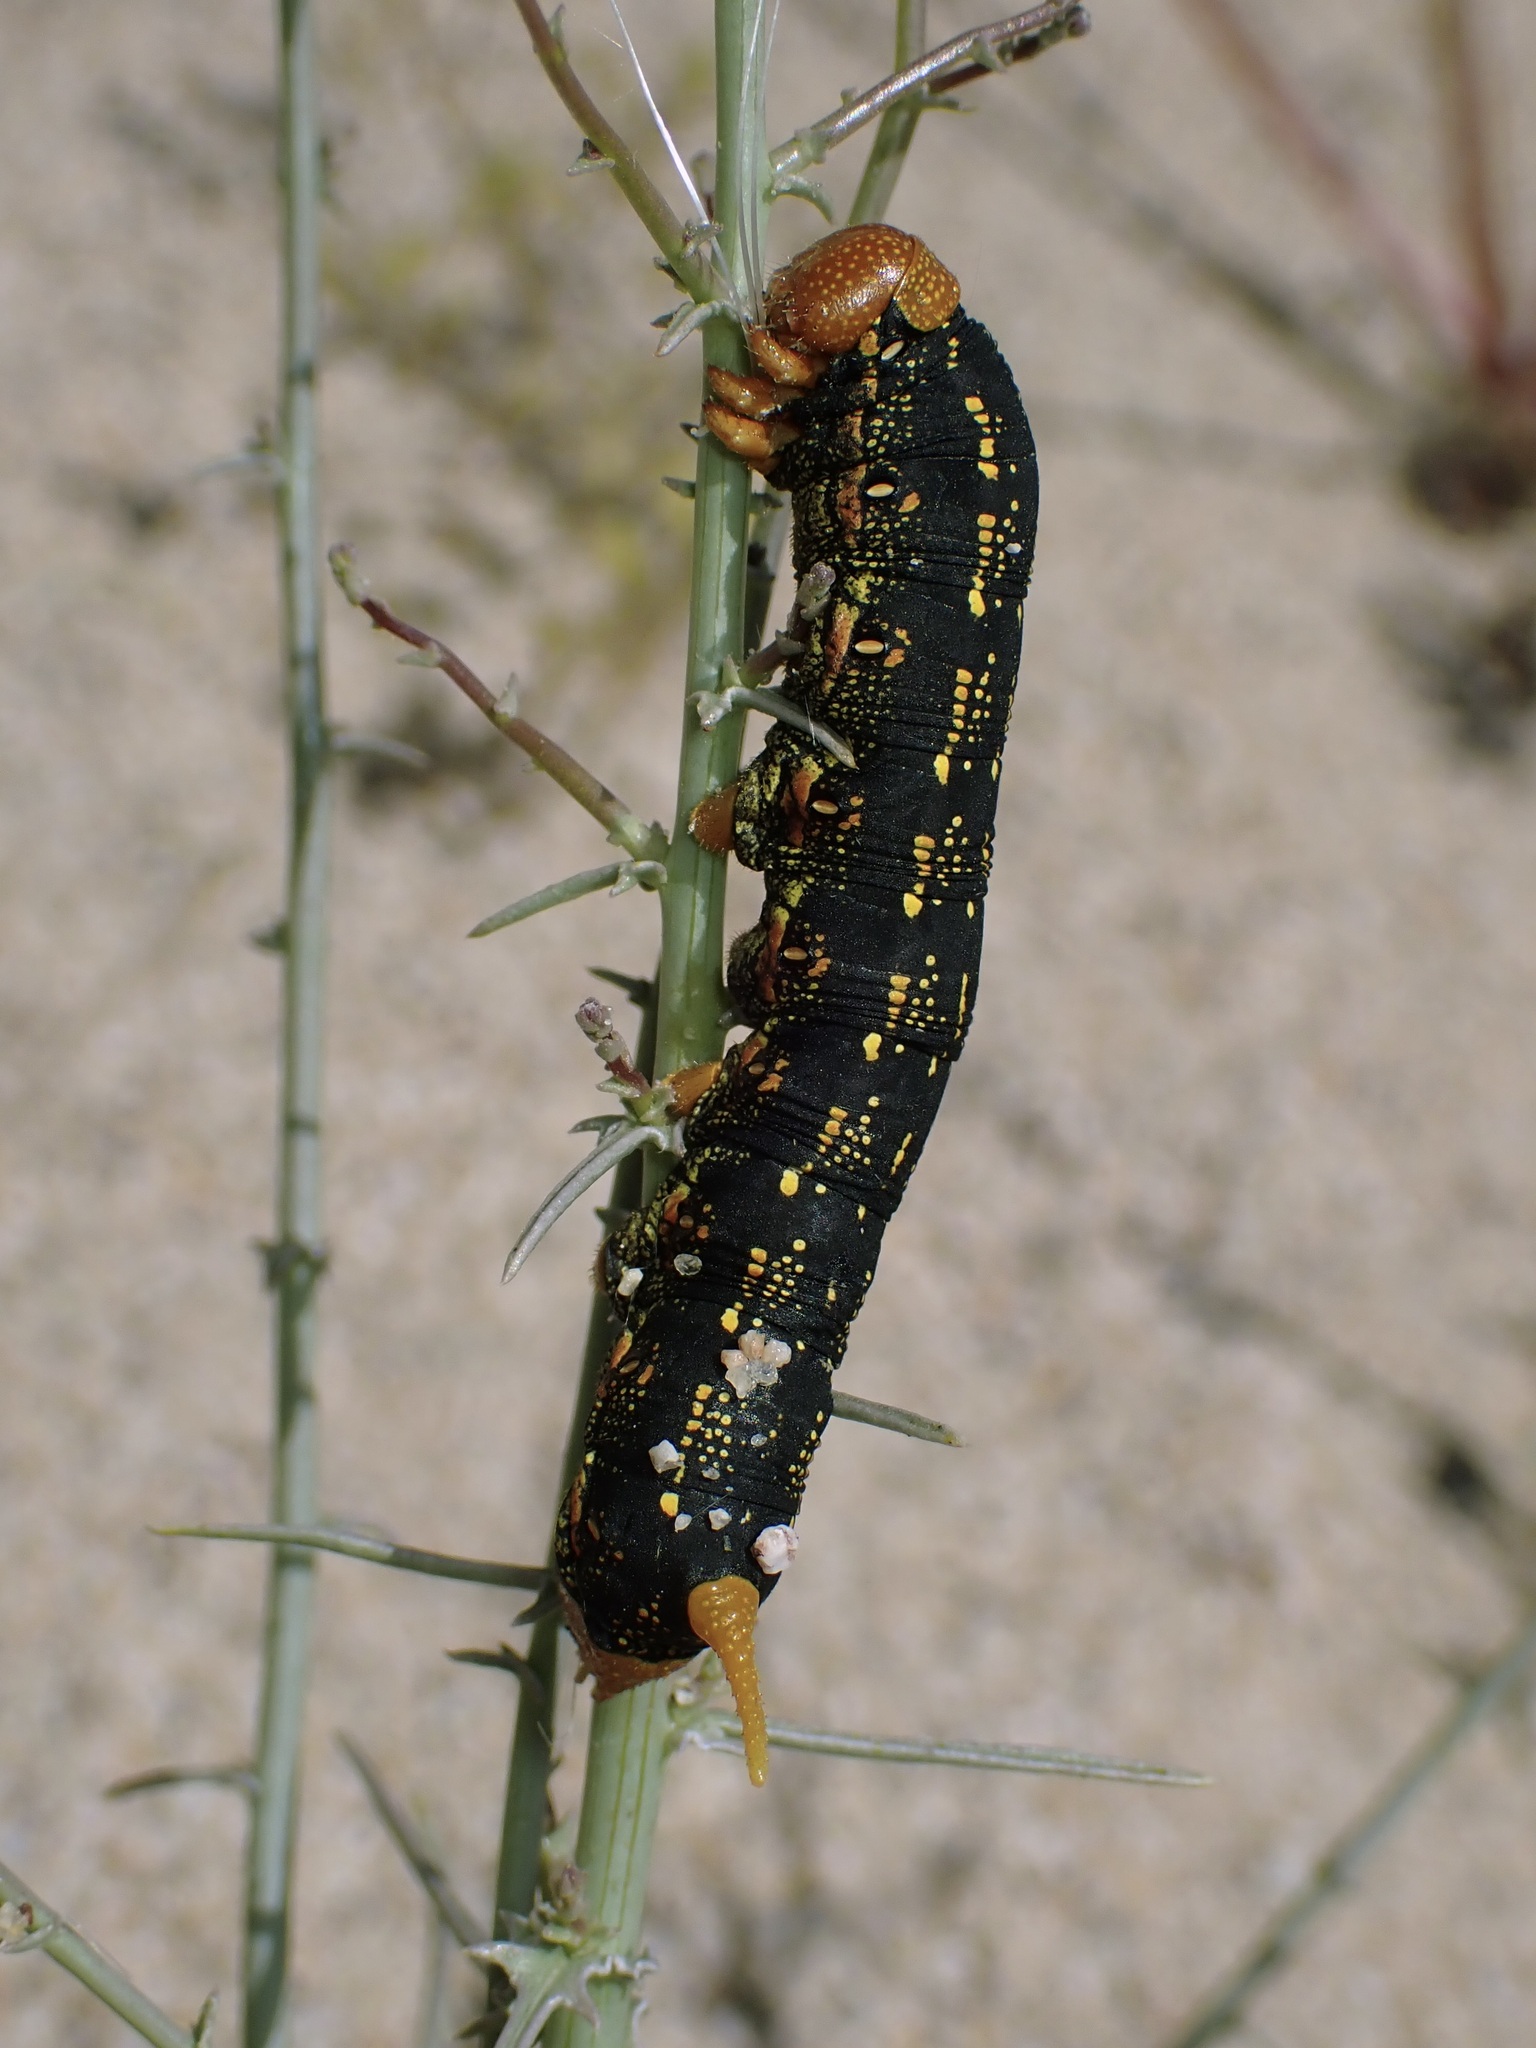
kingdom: Animalia
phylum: Arthropoda
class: Insecta
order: Lepidoptera
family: Sphingidae
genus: Hyles
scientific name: Hyles lineata
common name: White-lined sphinx
